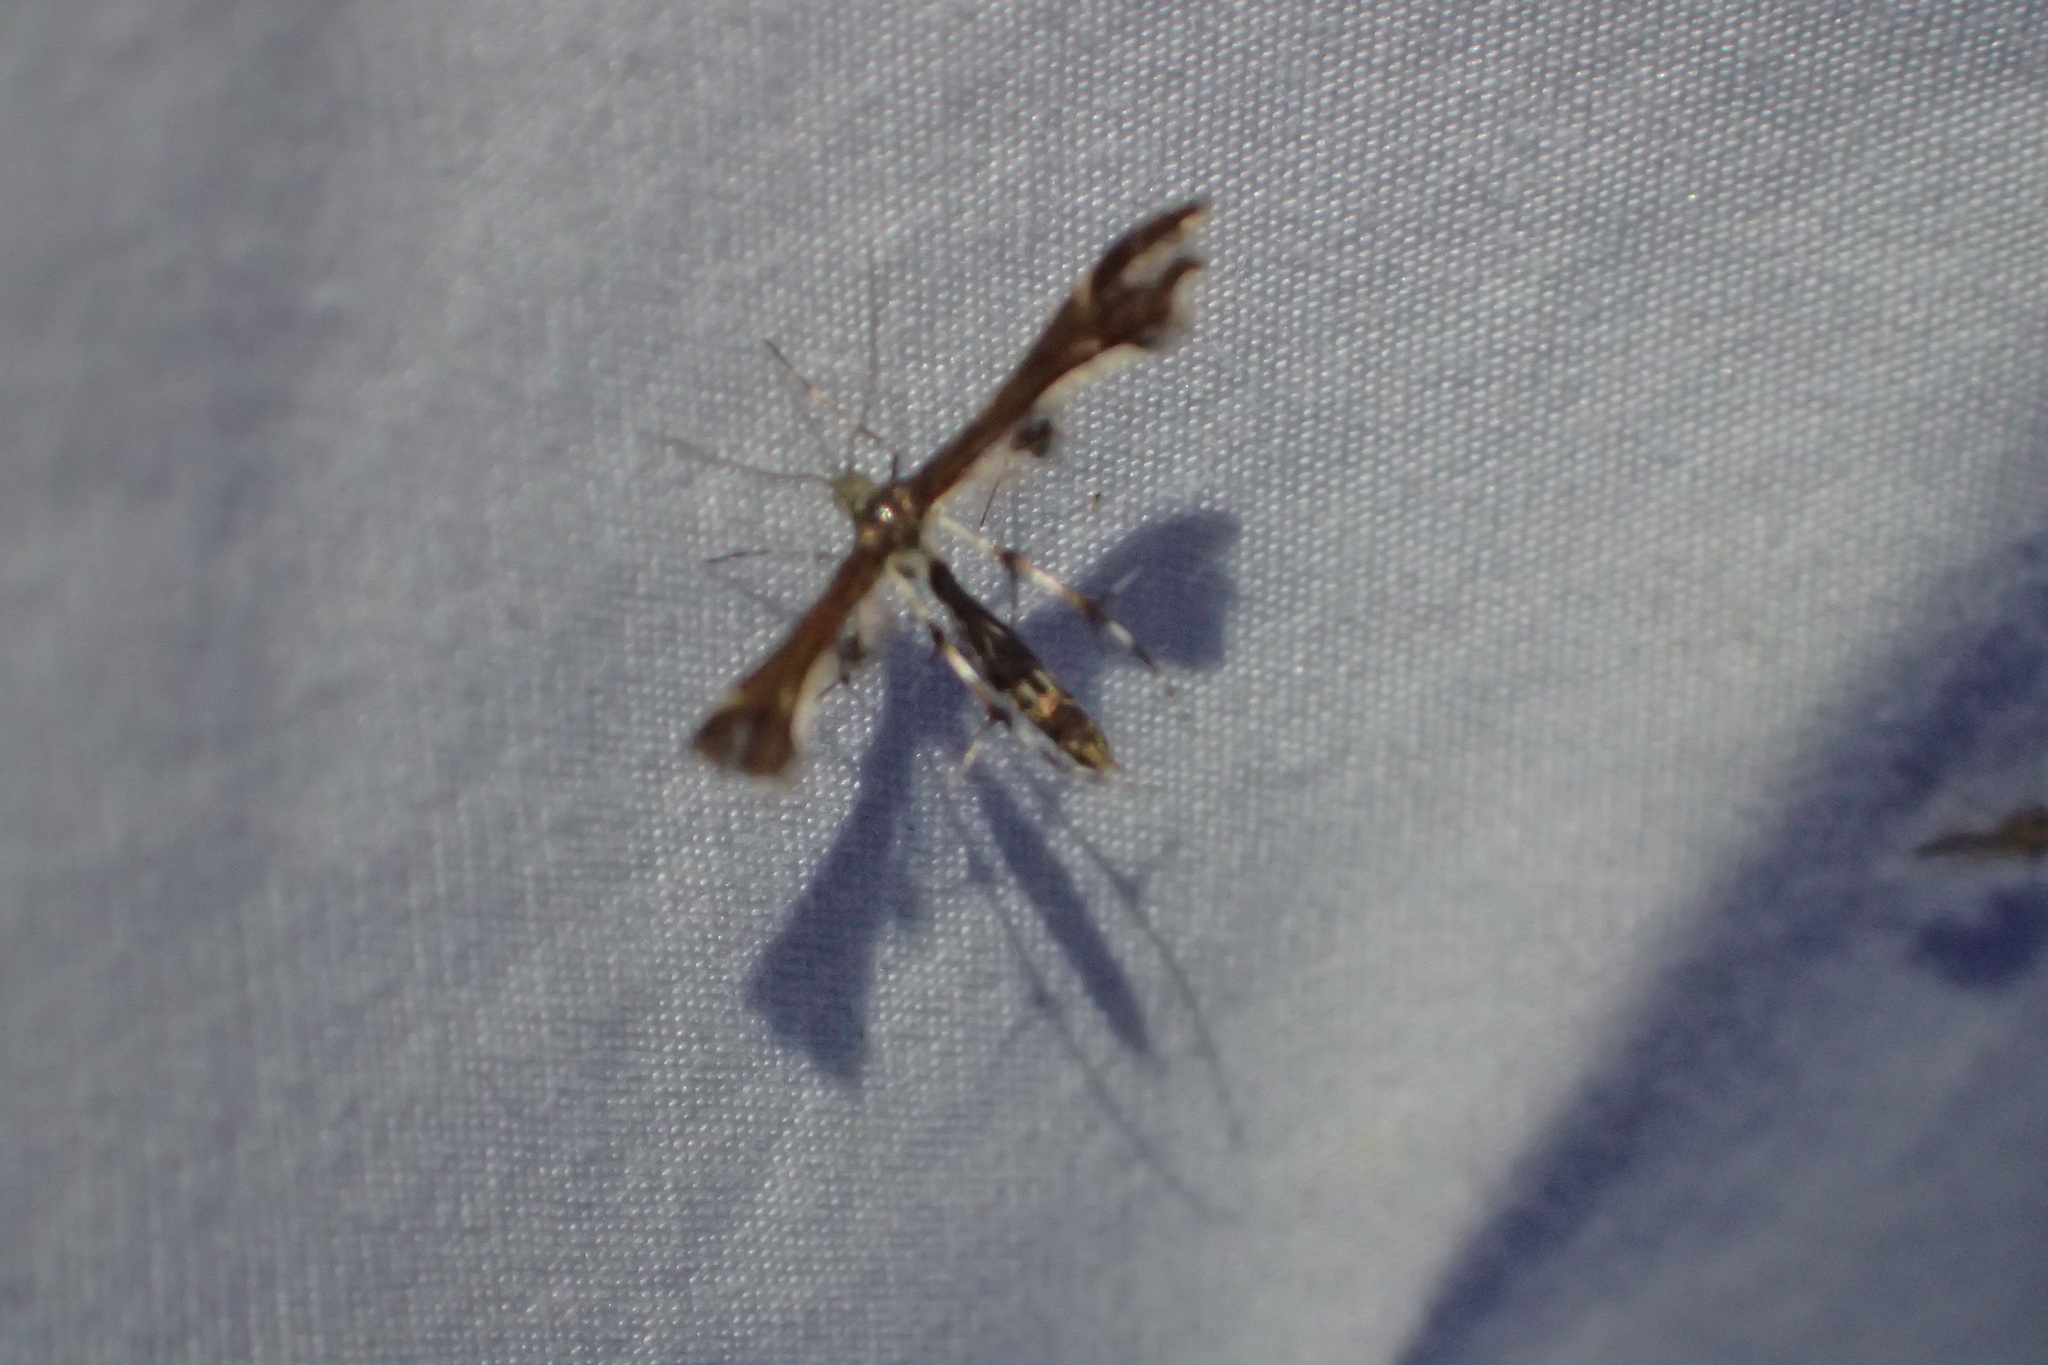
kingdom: Animalia
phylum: Arthropoda
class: Insecta
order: Lepidoptera
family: Pterophoridae
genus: Geina
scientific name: Geina
